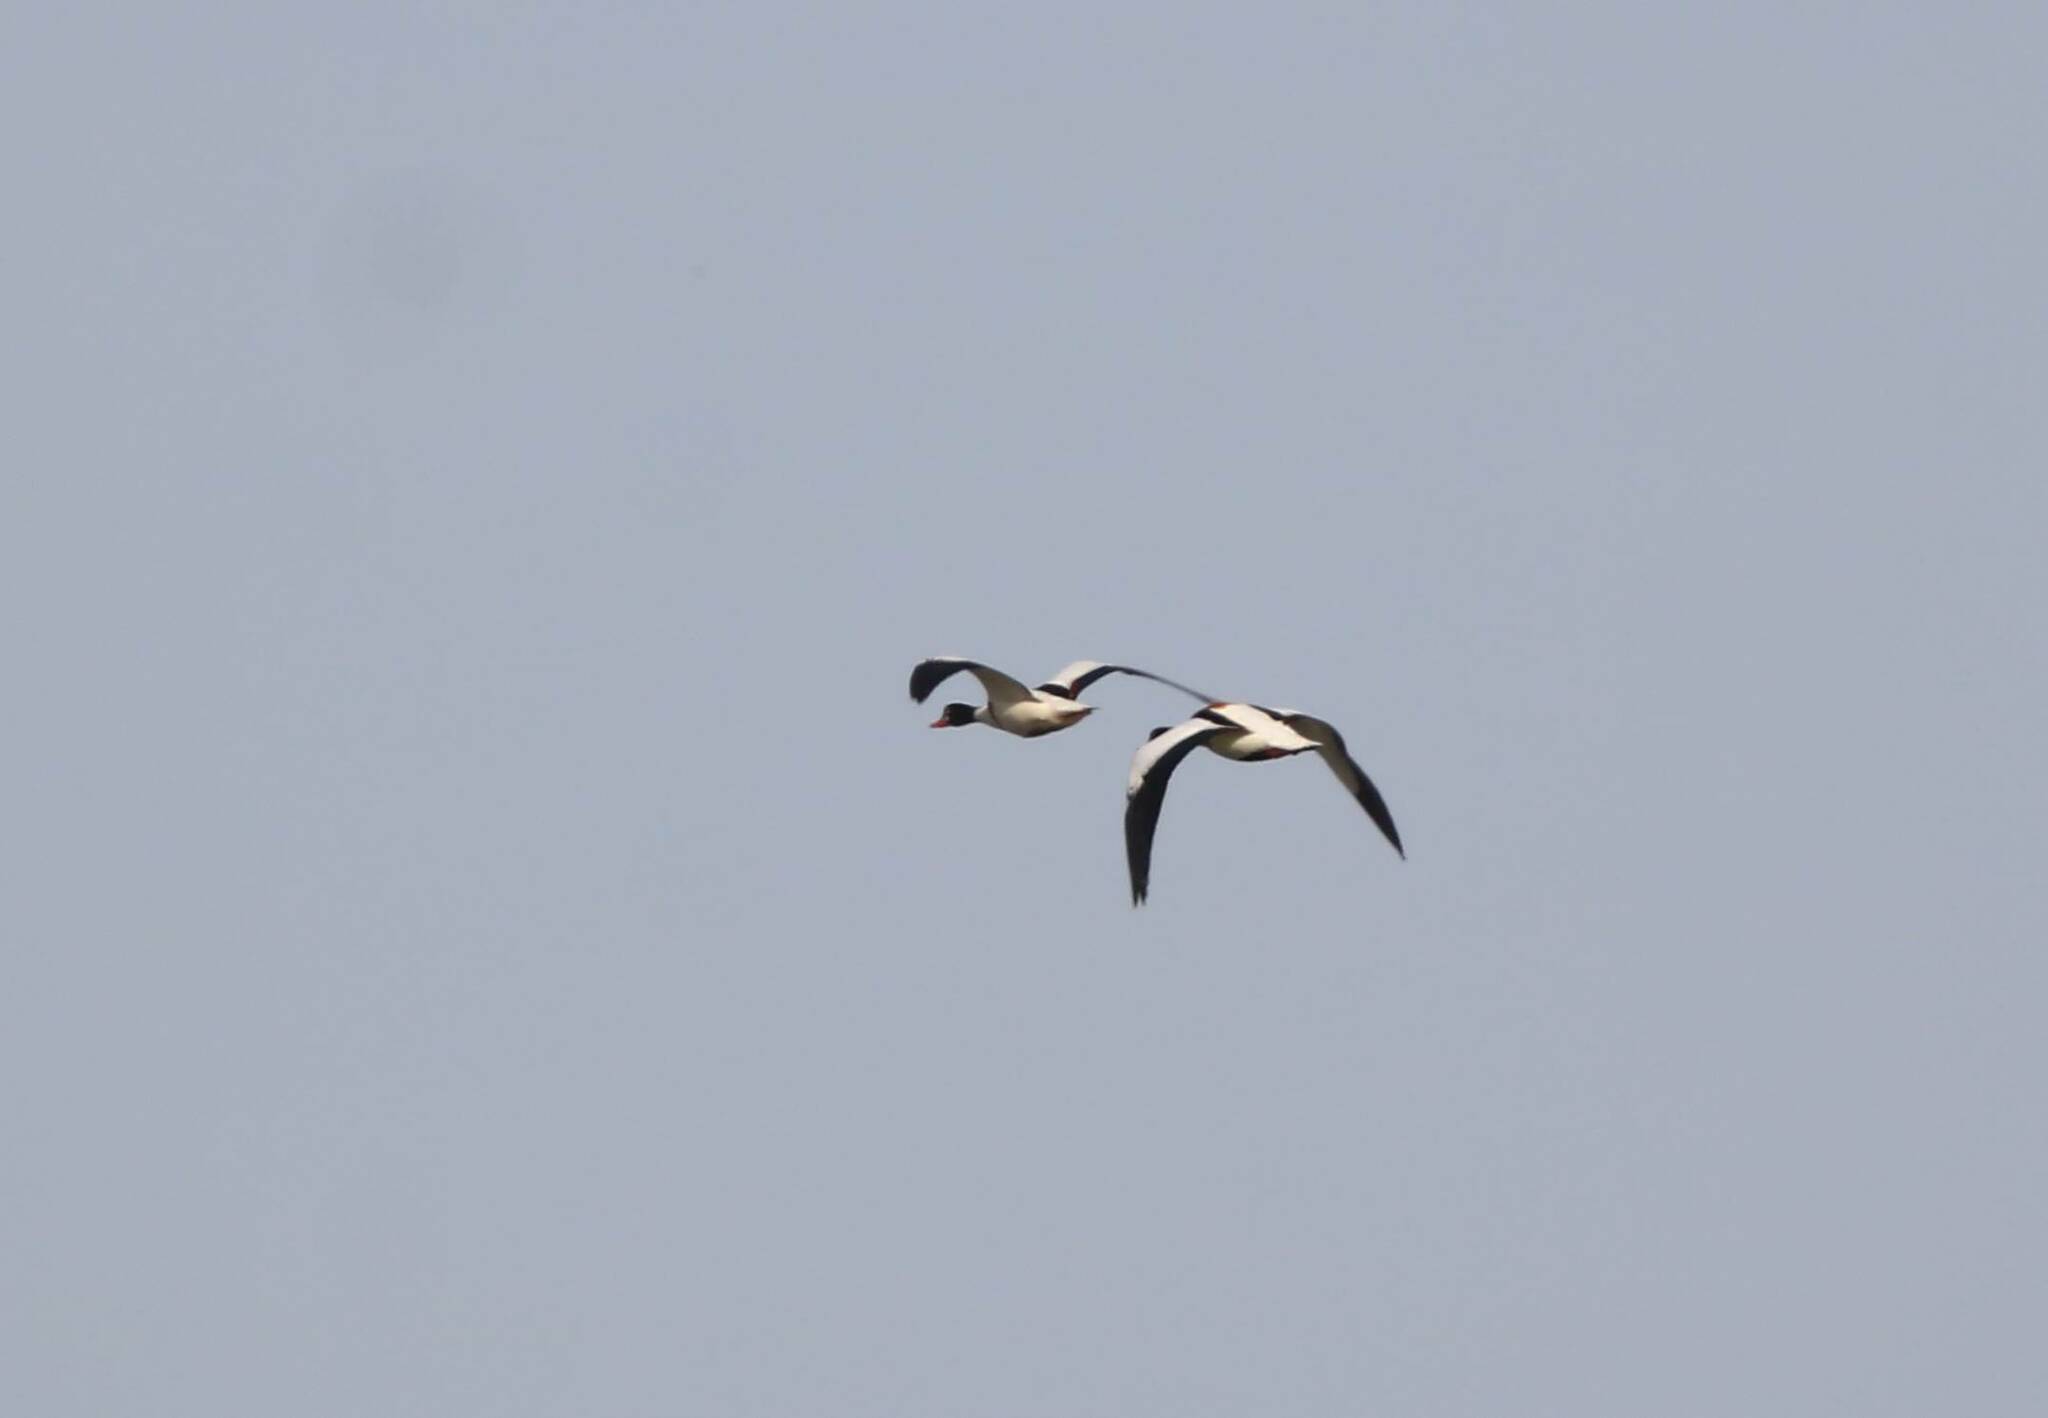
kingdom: Animalia
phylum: Chordata
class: Aves
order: Anseriformes
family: Anatidae
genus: Tadorna
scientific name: Tadorna tadorna
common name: Common shelduck
